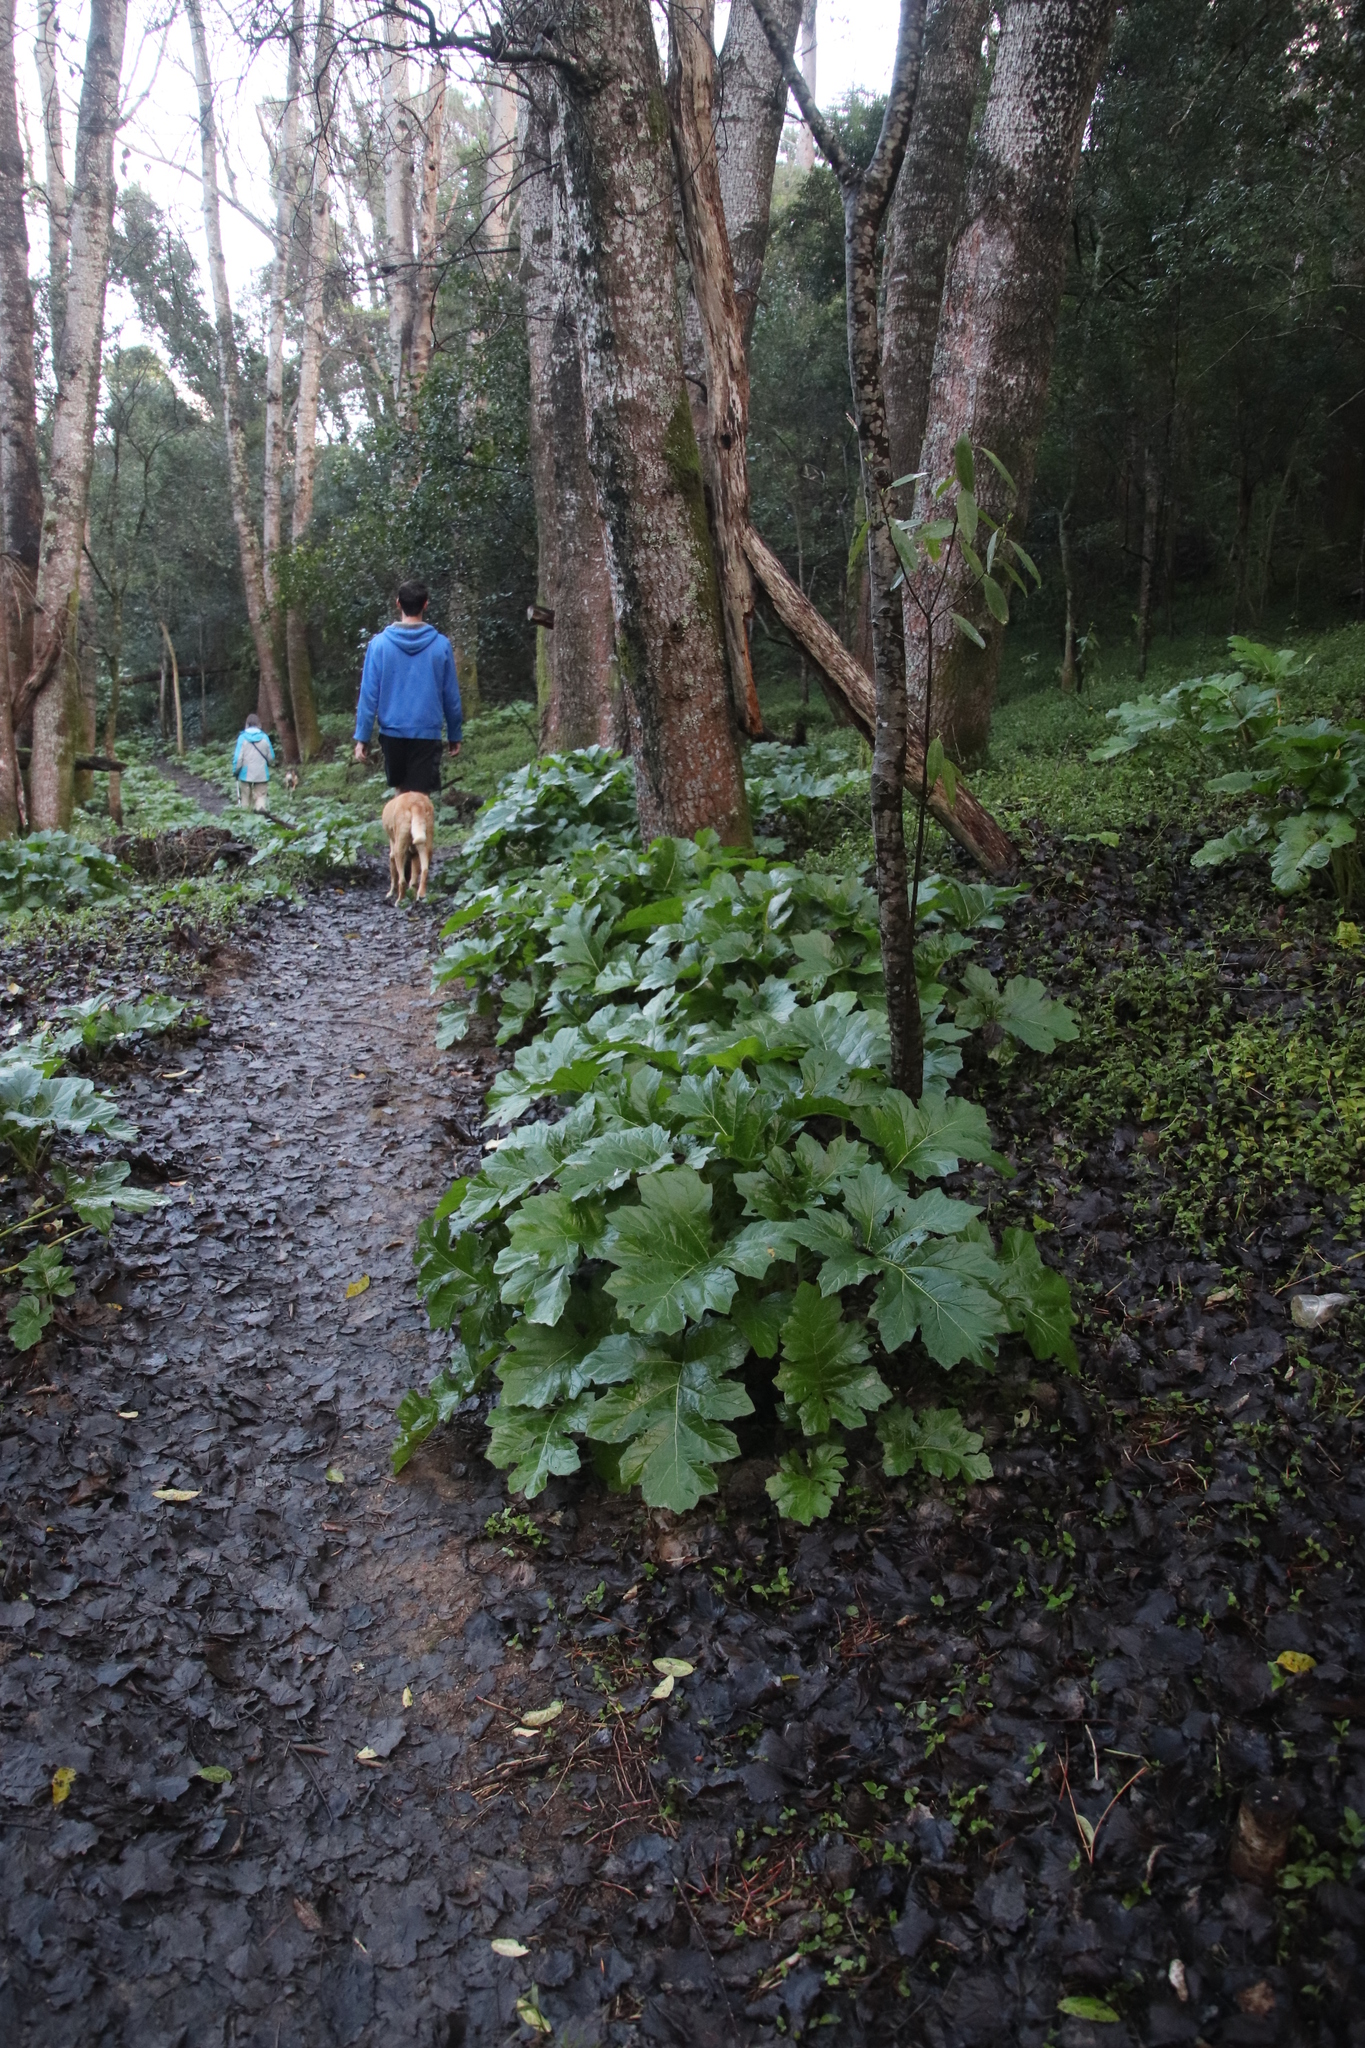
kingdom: Plantae
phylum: Tracheophyta
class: Magnoliopsida
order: Lamiales
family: Acanthaceae
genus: Acanthus
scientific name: Acanthus mollis
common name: Bear's-breech
